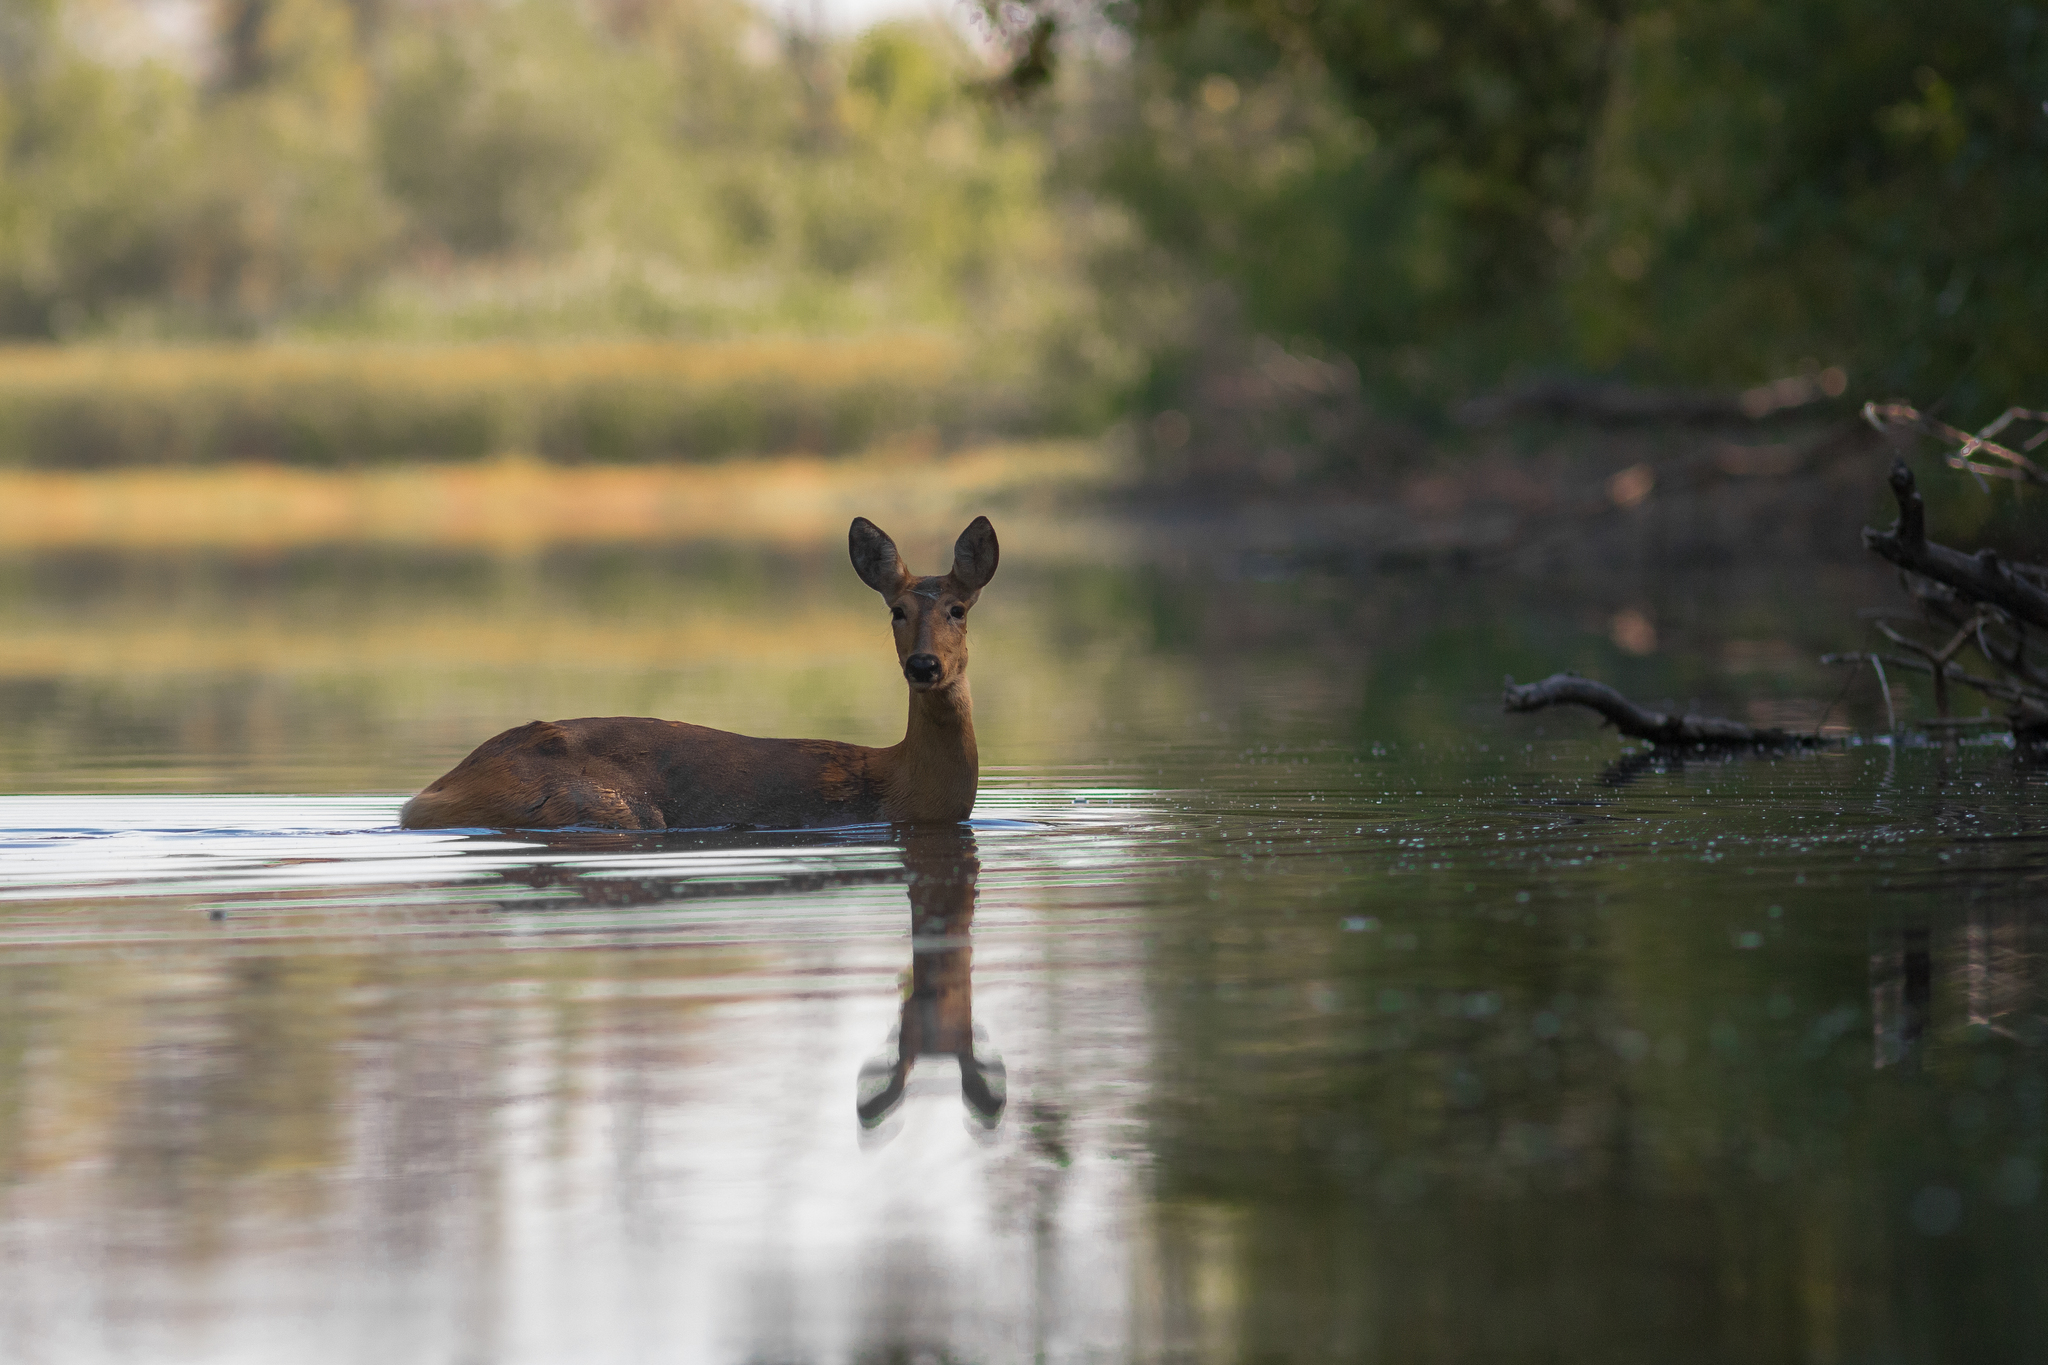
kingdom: Animalia
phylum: Chordata
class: Mammalia
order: Artiodactyla
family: Cervidae
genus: Capreolus
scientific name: Capreolus pygargus
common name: Siberian roe
